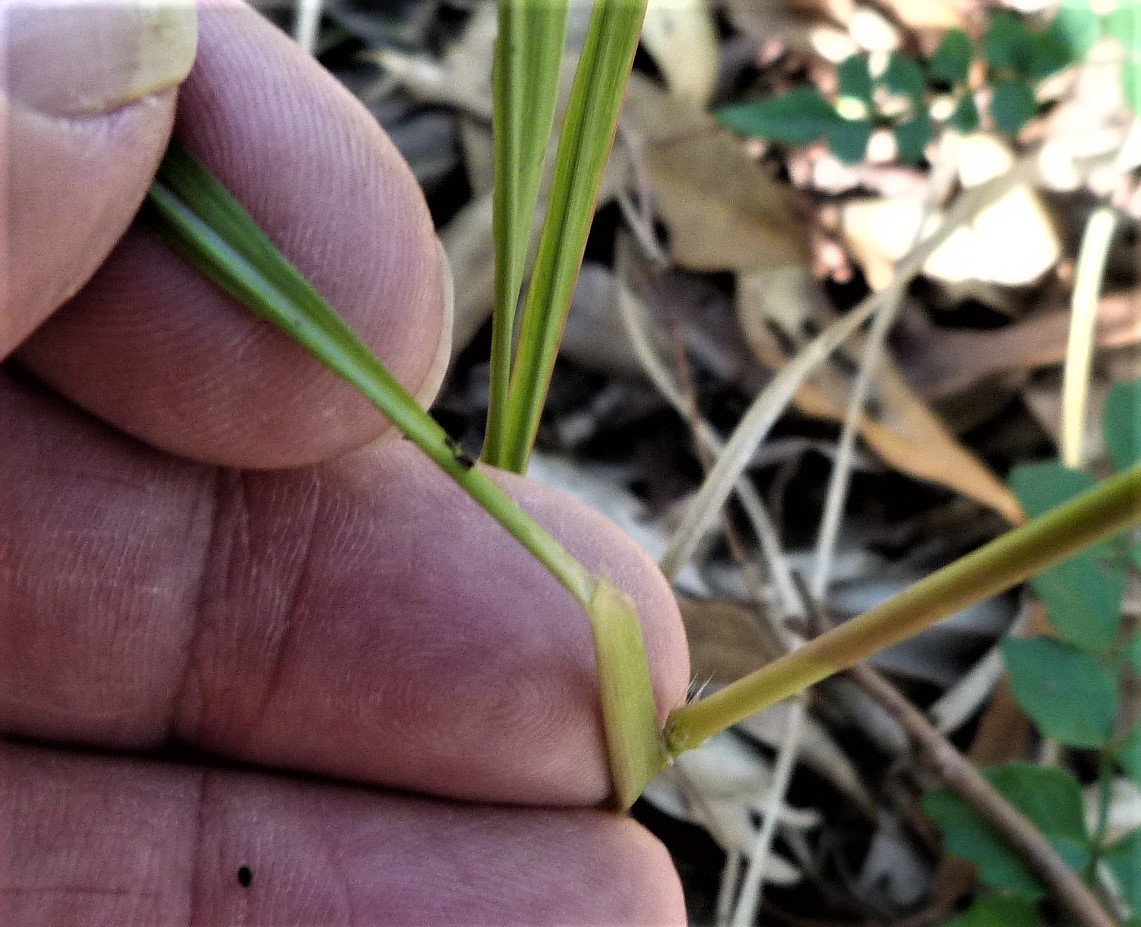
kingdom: Plantae
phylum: Tracheophyta
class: Liliopsida
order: Poales
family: Poaceae
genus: Imperata
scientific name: Imperata cylindrica
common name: Cogongrass
